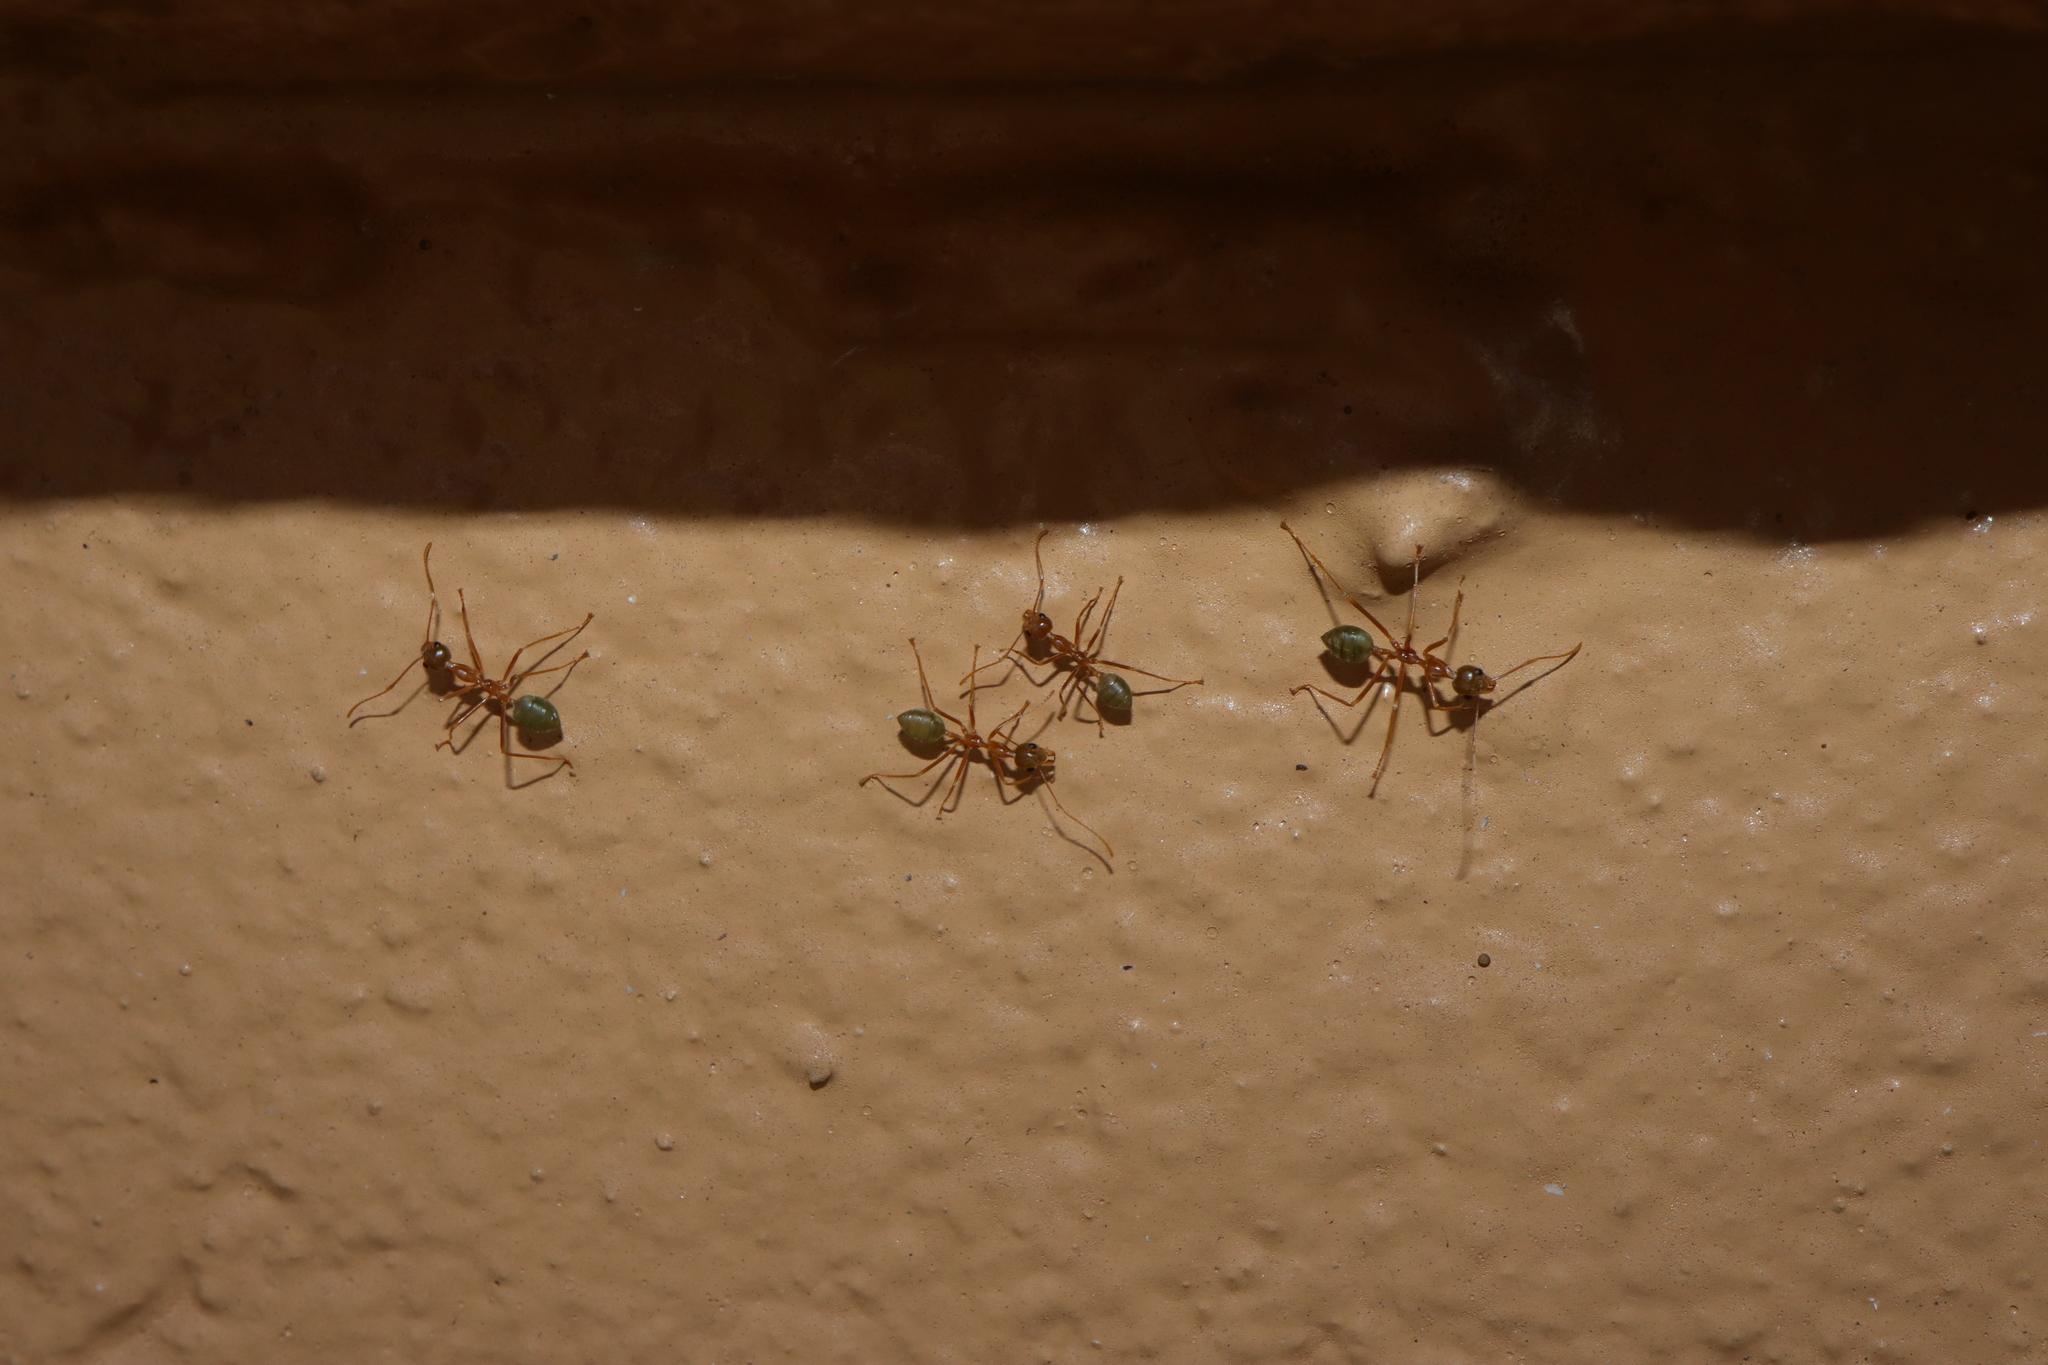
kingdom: Animalia
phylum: Arthropoda
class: Insecta
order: Hymenoptera
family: Formicidae
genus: Oecophylla
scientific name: Oecophylla smaragdina
